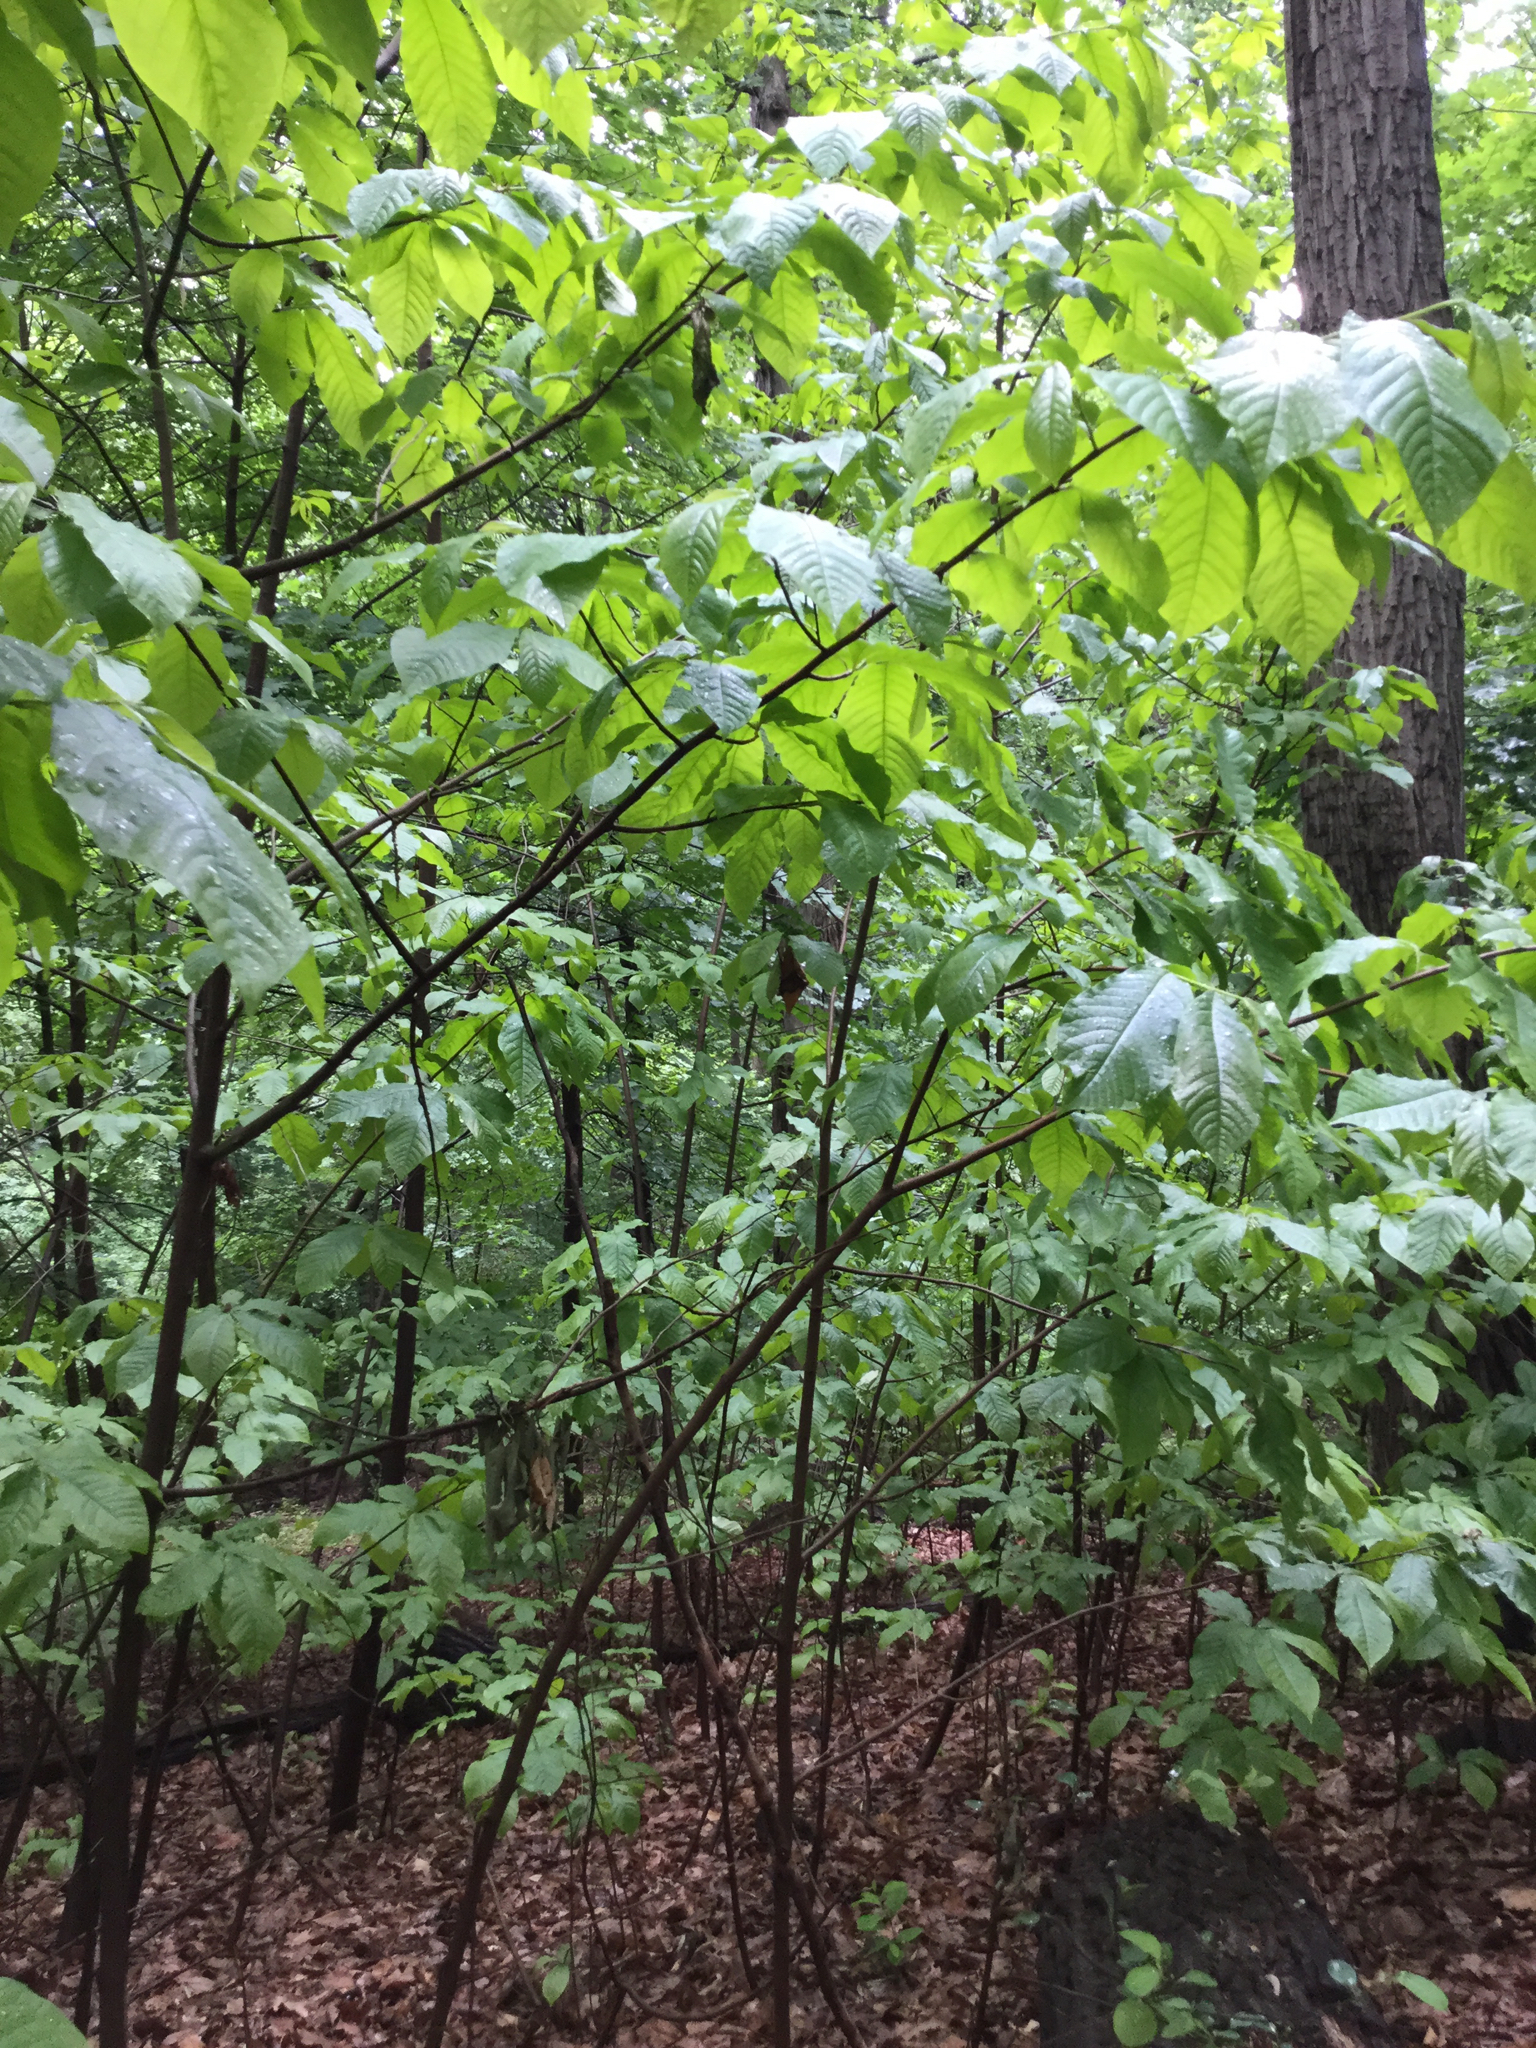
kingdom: Plantae
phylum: Tracheophyta
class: Magnoliopsida
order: Magnoliales
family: Annonaceae
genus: Asimina
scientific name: Asimina triloba
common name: Dog-banana
